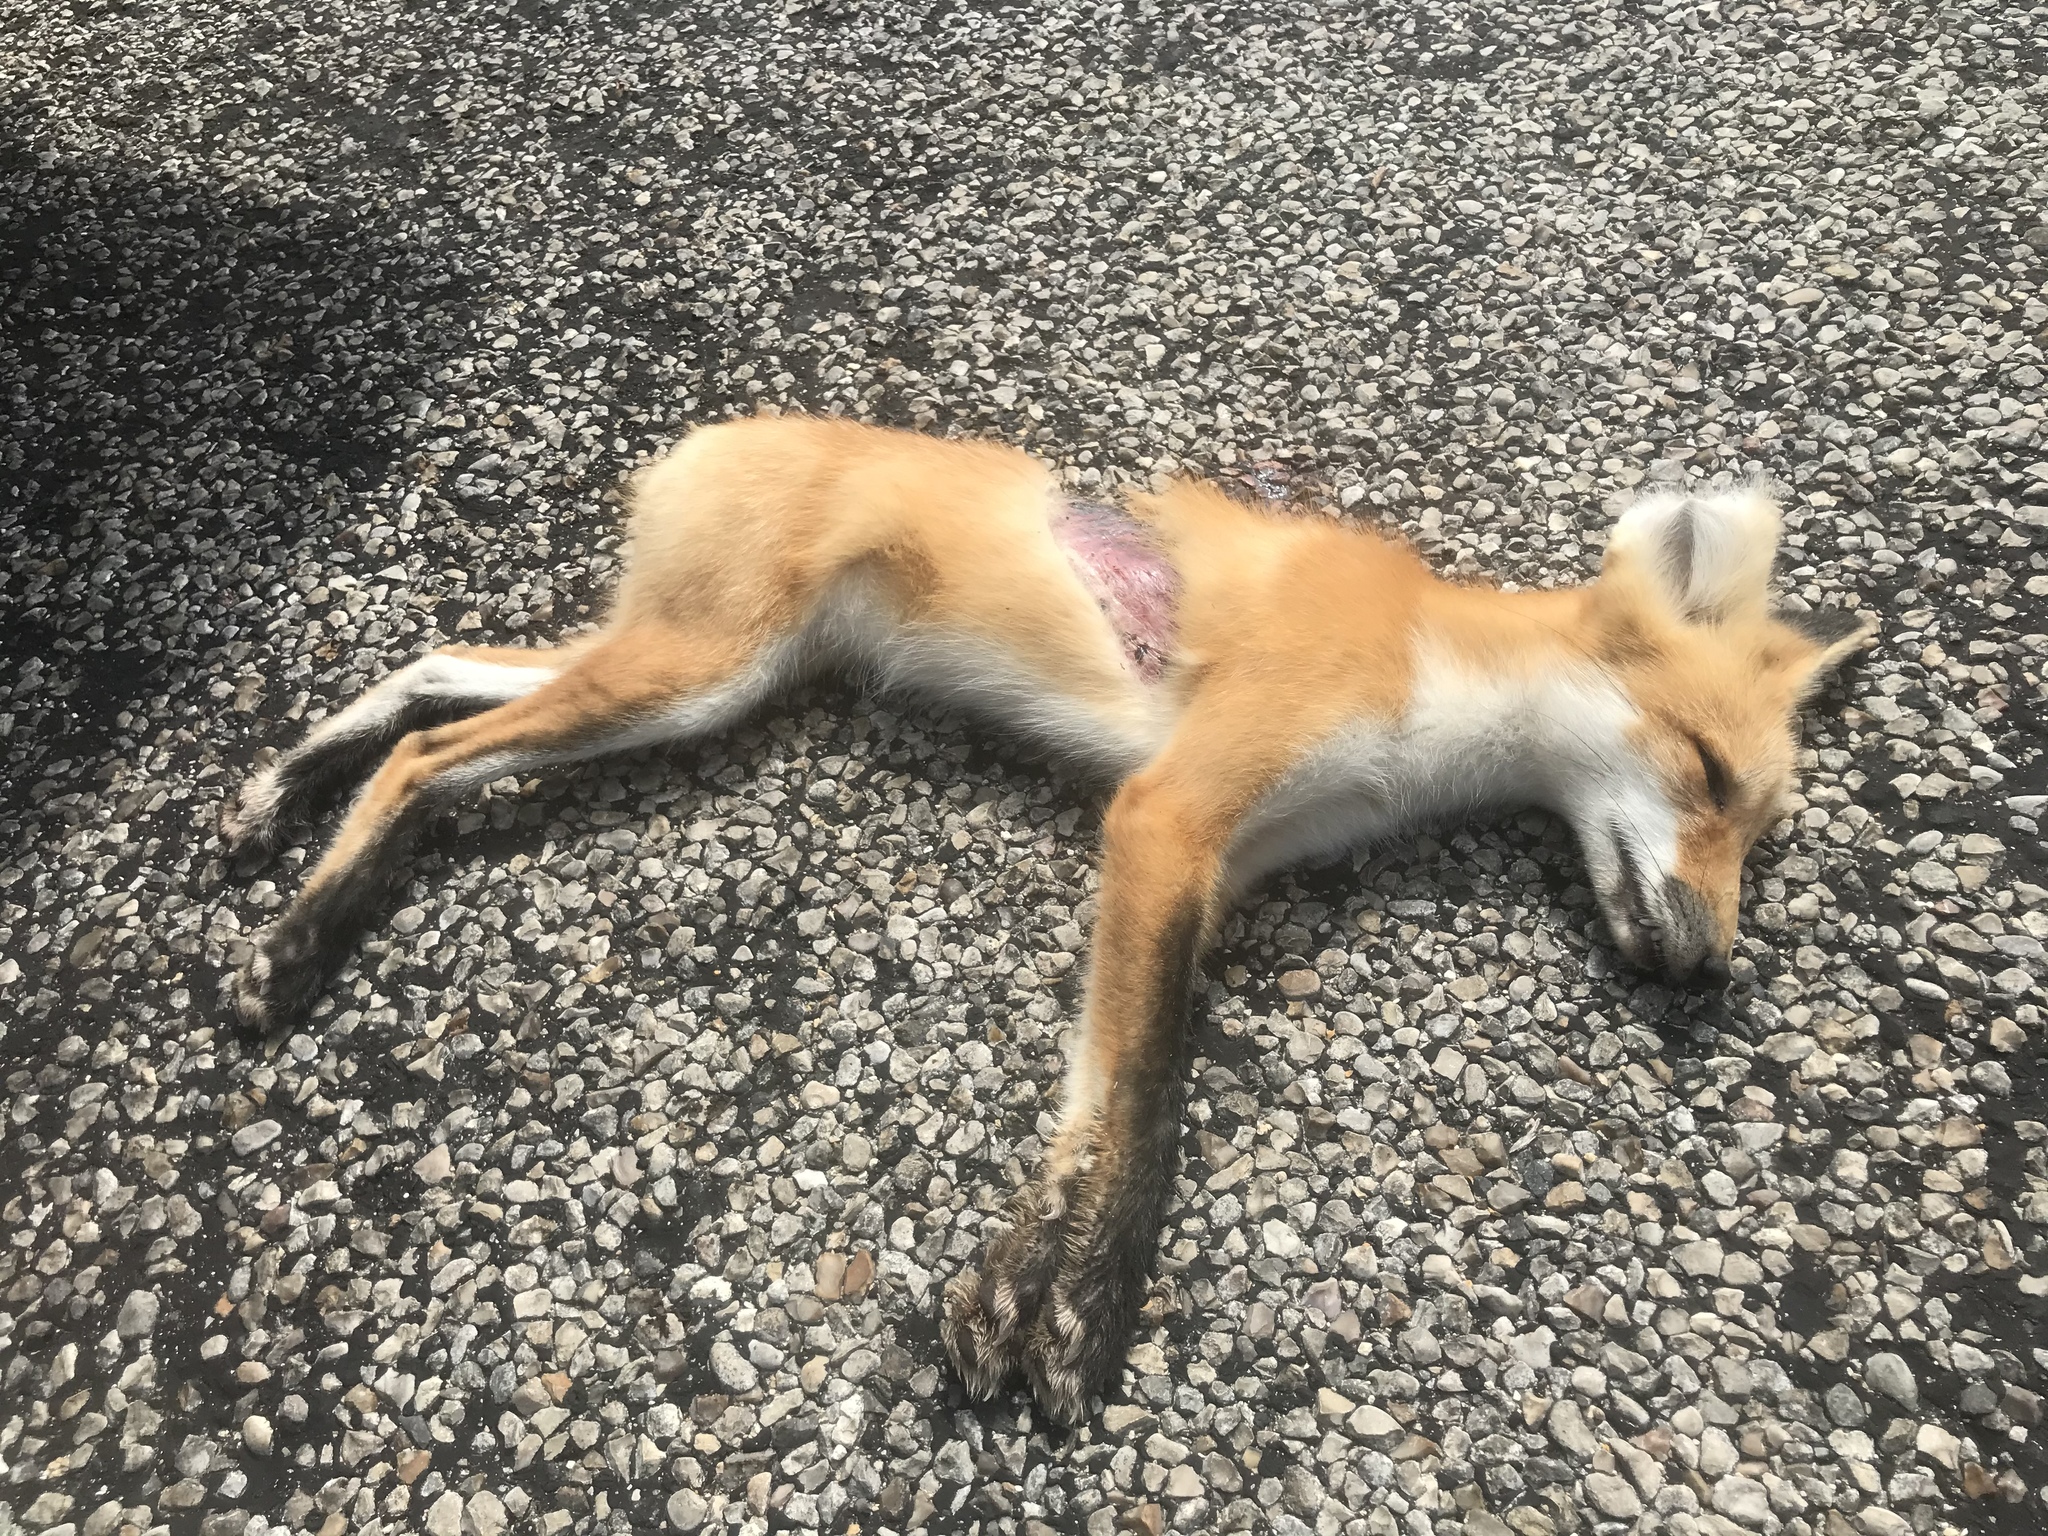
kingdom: Animalia
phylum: Chordata
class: Mammalia
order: Carnivora
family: Canidae
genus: Vulpes
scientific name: Vulpes vulpes
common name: Red fox
